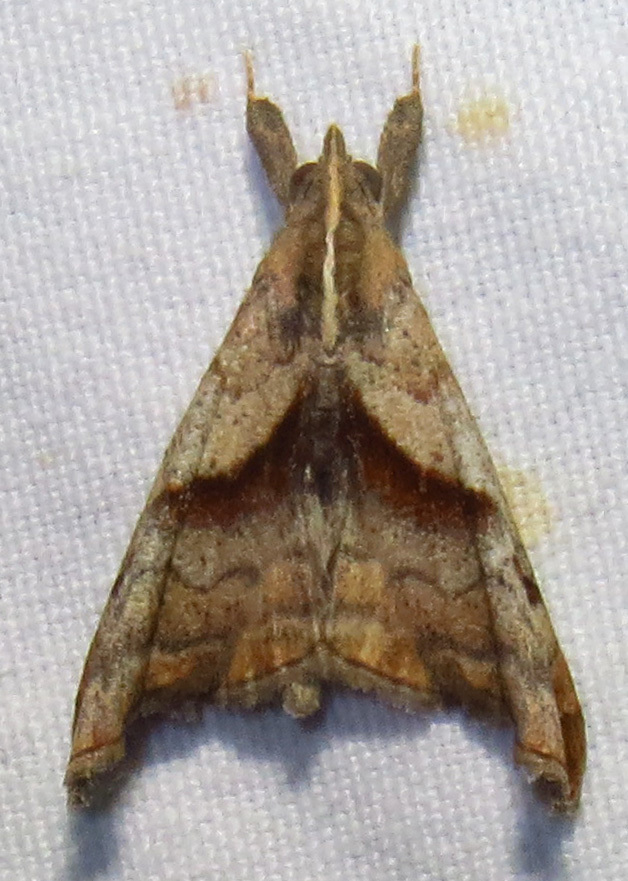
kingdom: Animalia
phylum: Arthropoda
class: Insecta
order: Lepidoptera
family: Erebidae
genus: Palthis
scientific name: Palthis angulalis
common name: Dark-spotted palthis moth
